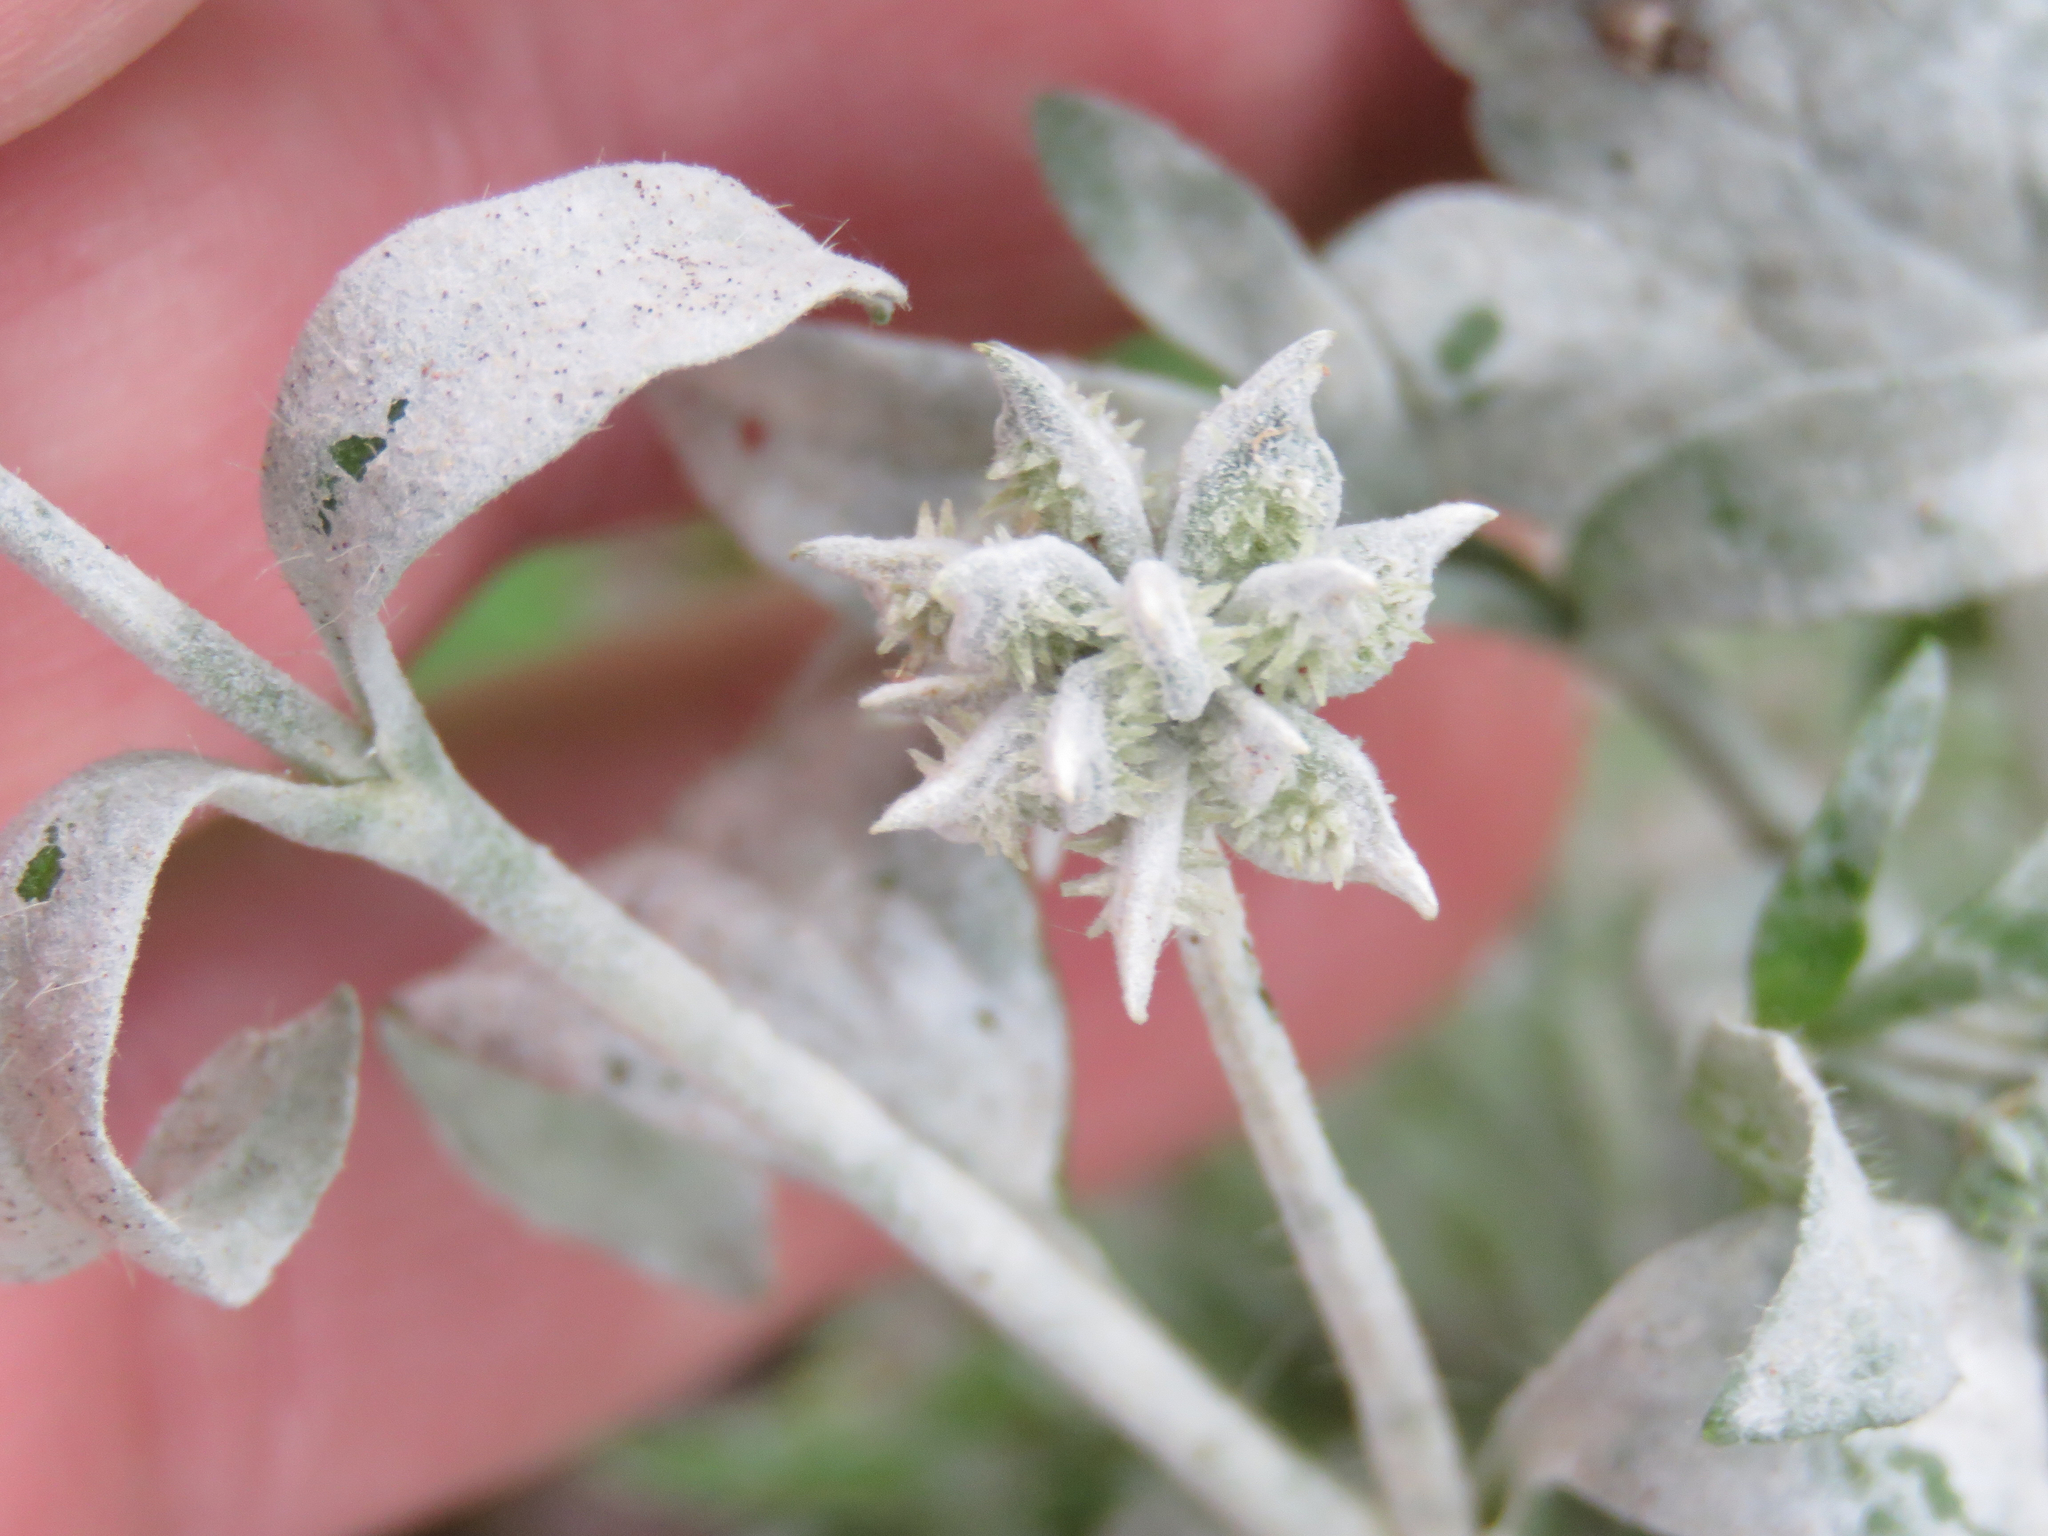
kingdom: Plantae
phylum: Tracheophyta
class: Magnoliopsida
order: Ranunculales
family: Ranunculaceae
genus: Ranunculus
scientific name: Ranunculus muricatus
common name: Rough-fruited buttercup
